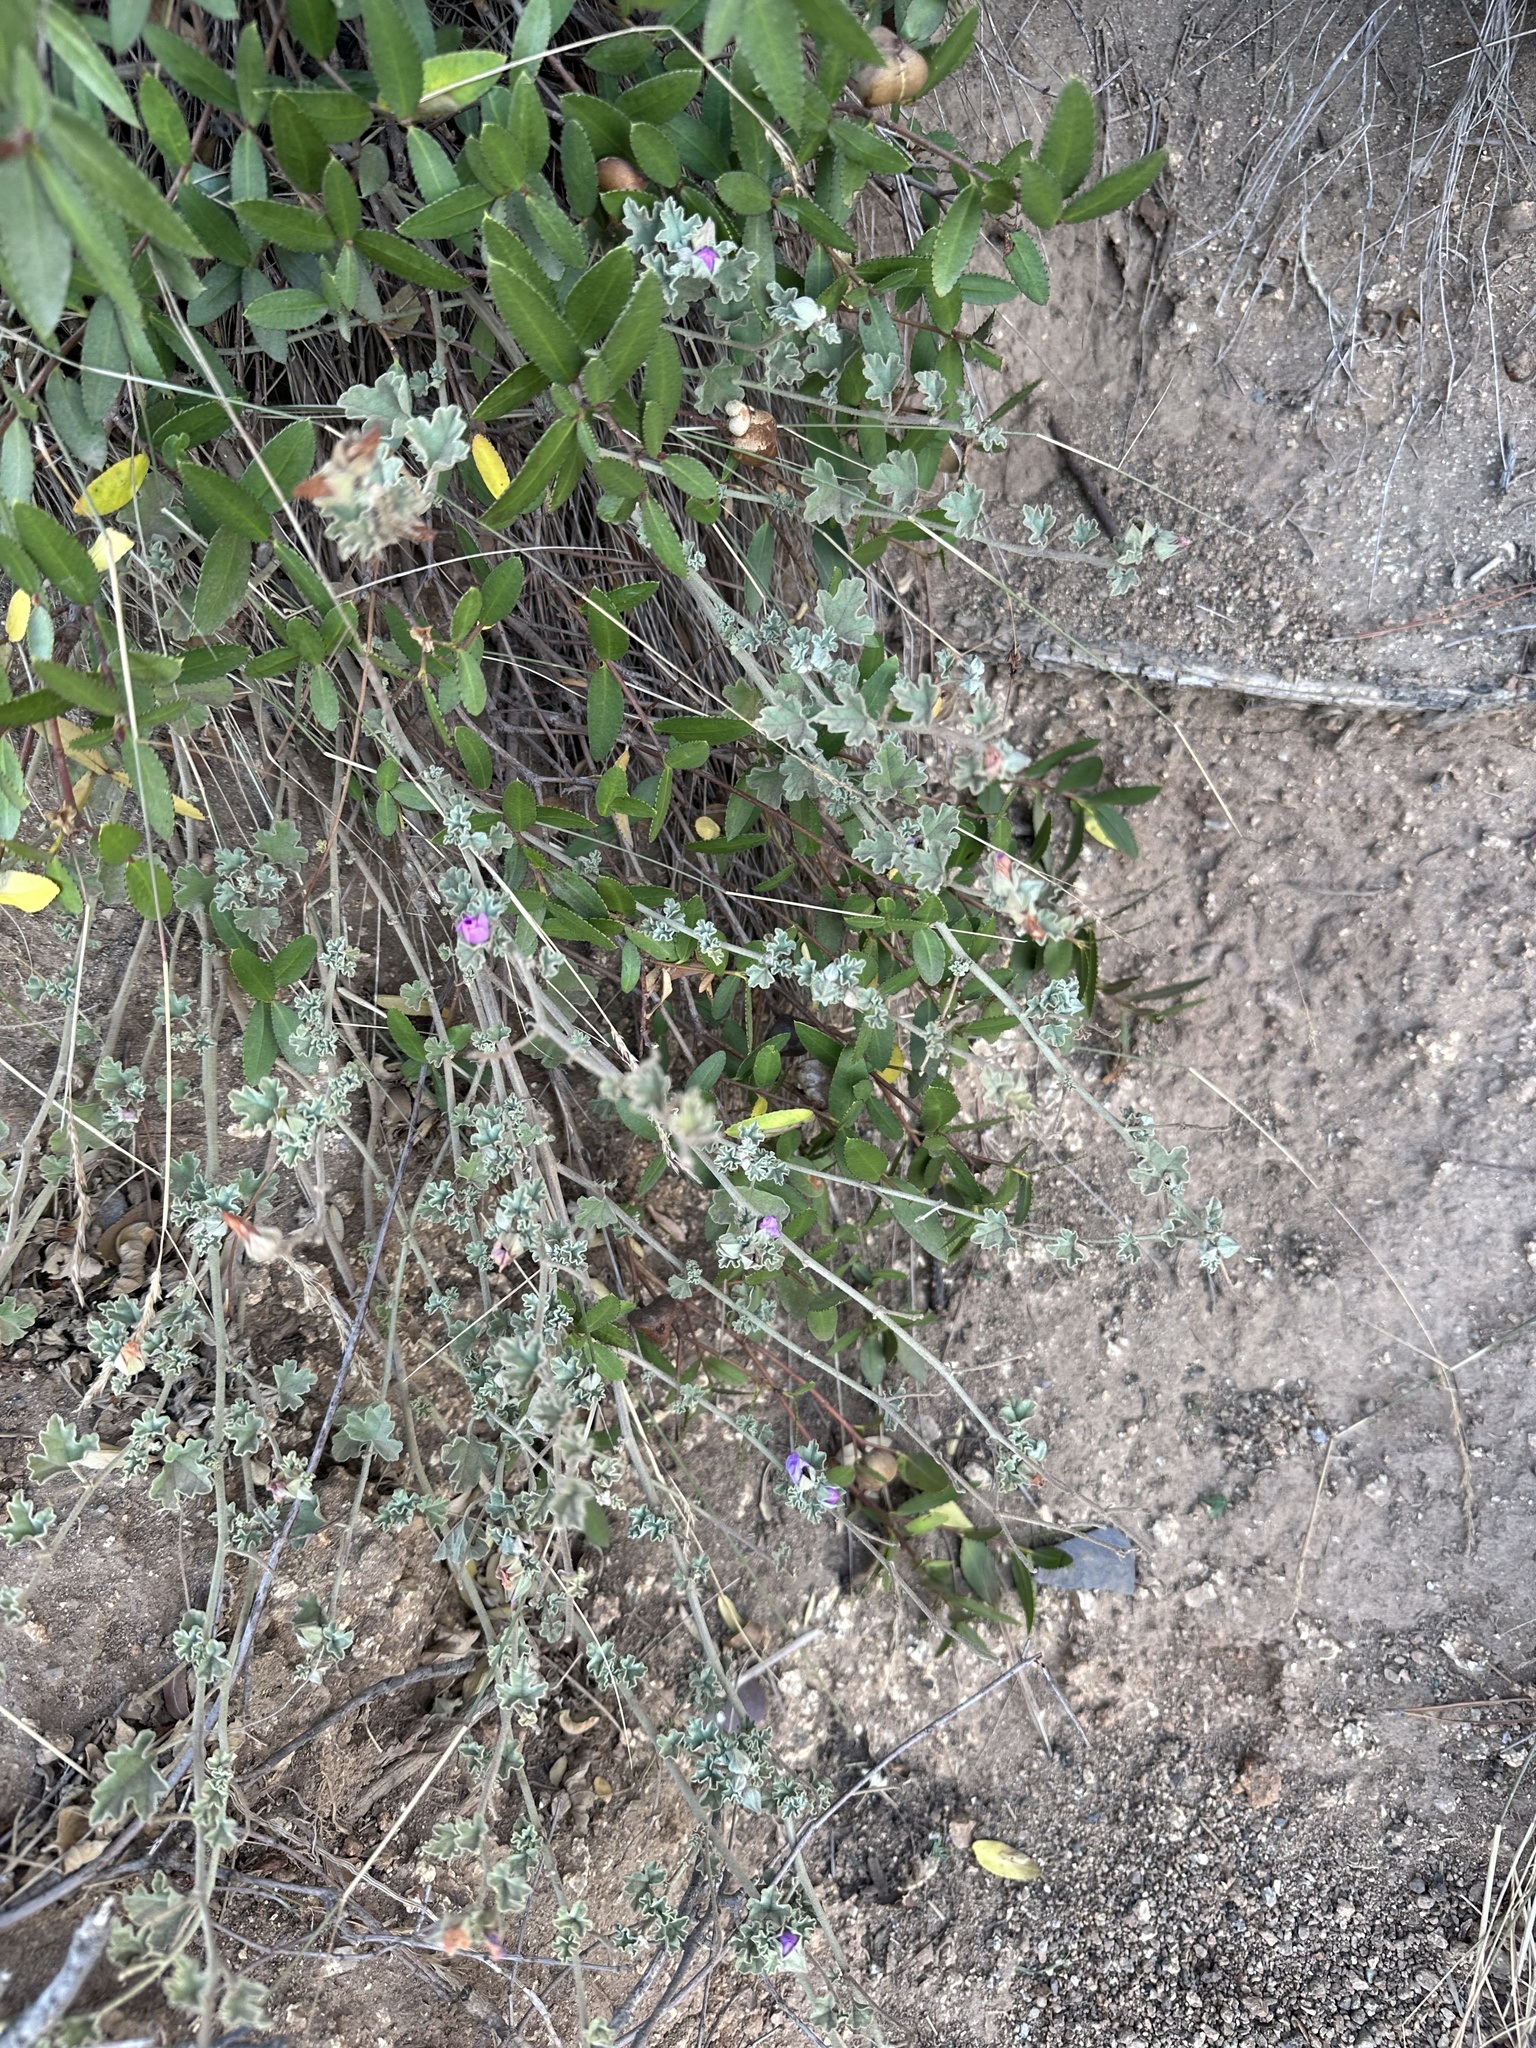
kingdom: Plantae
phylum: Tracheophyta
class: Magnoliopsida
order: Malvales
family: Malvaceae
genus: Sphaeralcea
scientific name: Sphaeralcea obtusiloba
